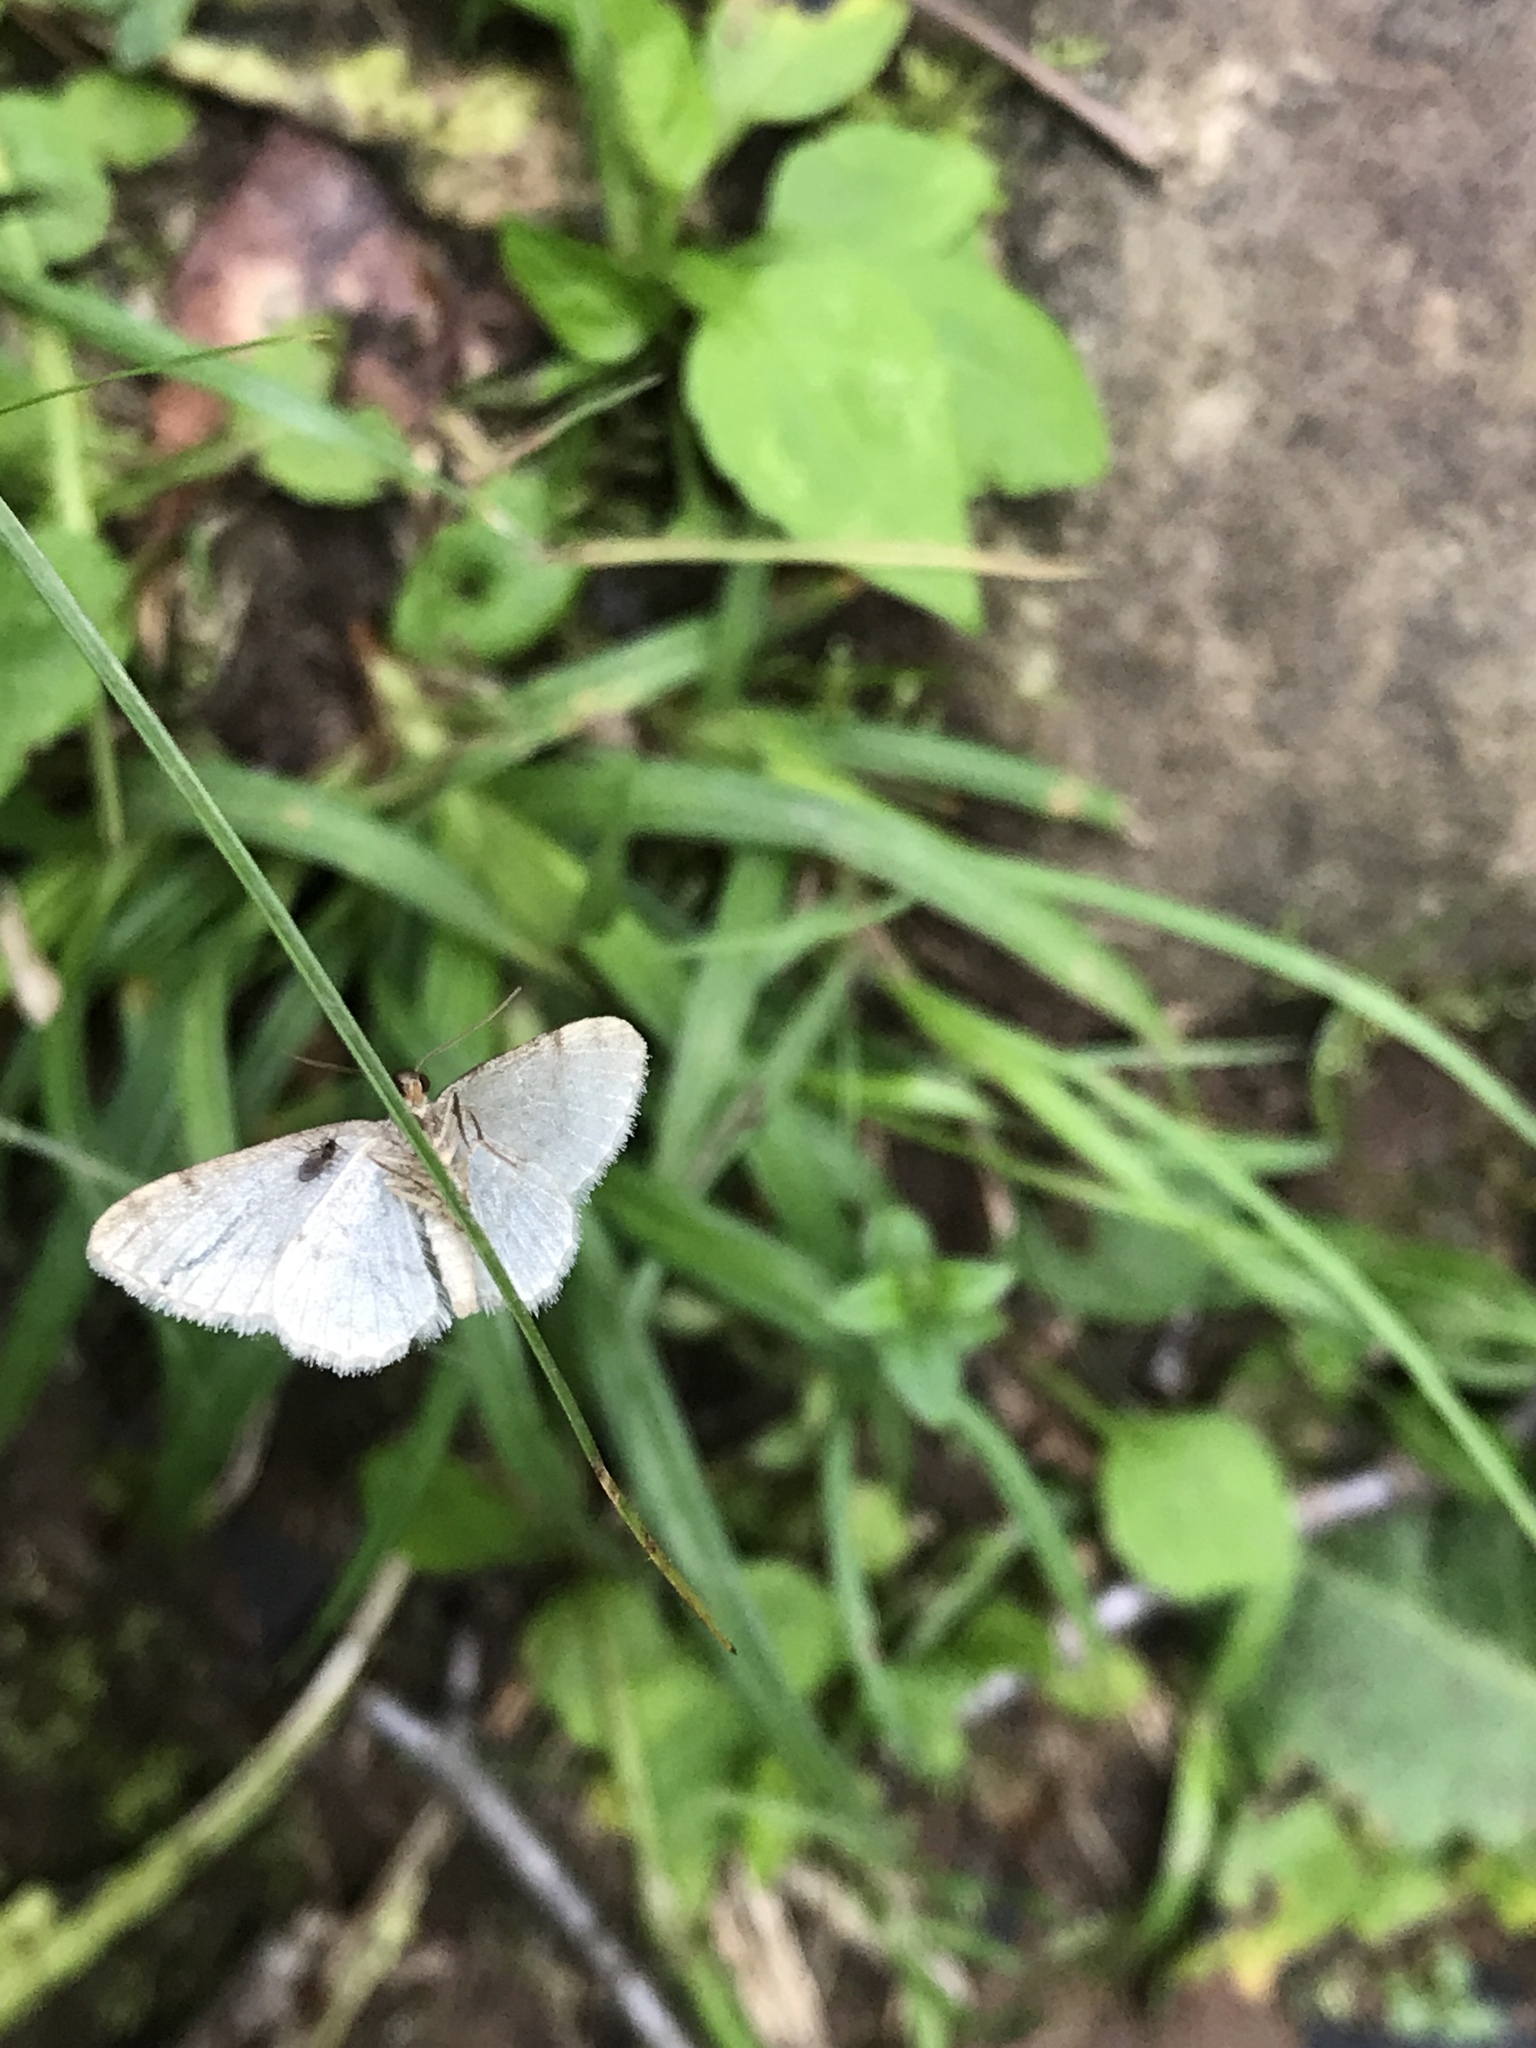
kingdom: Animalia
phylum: Arthropoda
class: Insecta
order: Lepidoptera
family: Geometridae
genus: Macaria
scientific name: Macaria pustularia
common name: Lesser maple spanworm moth
